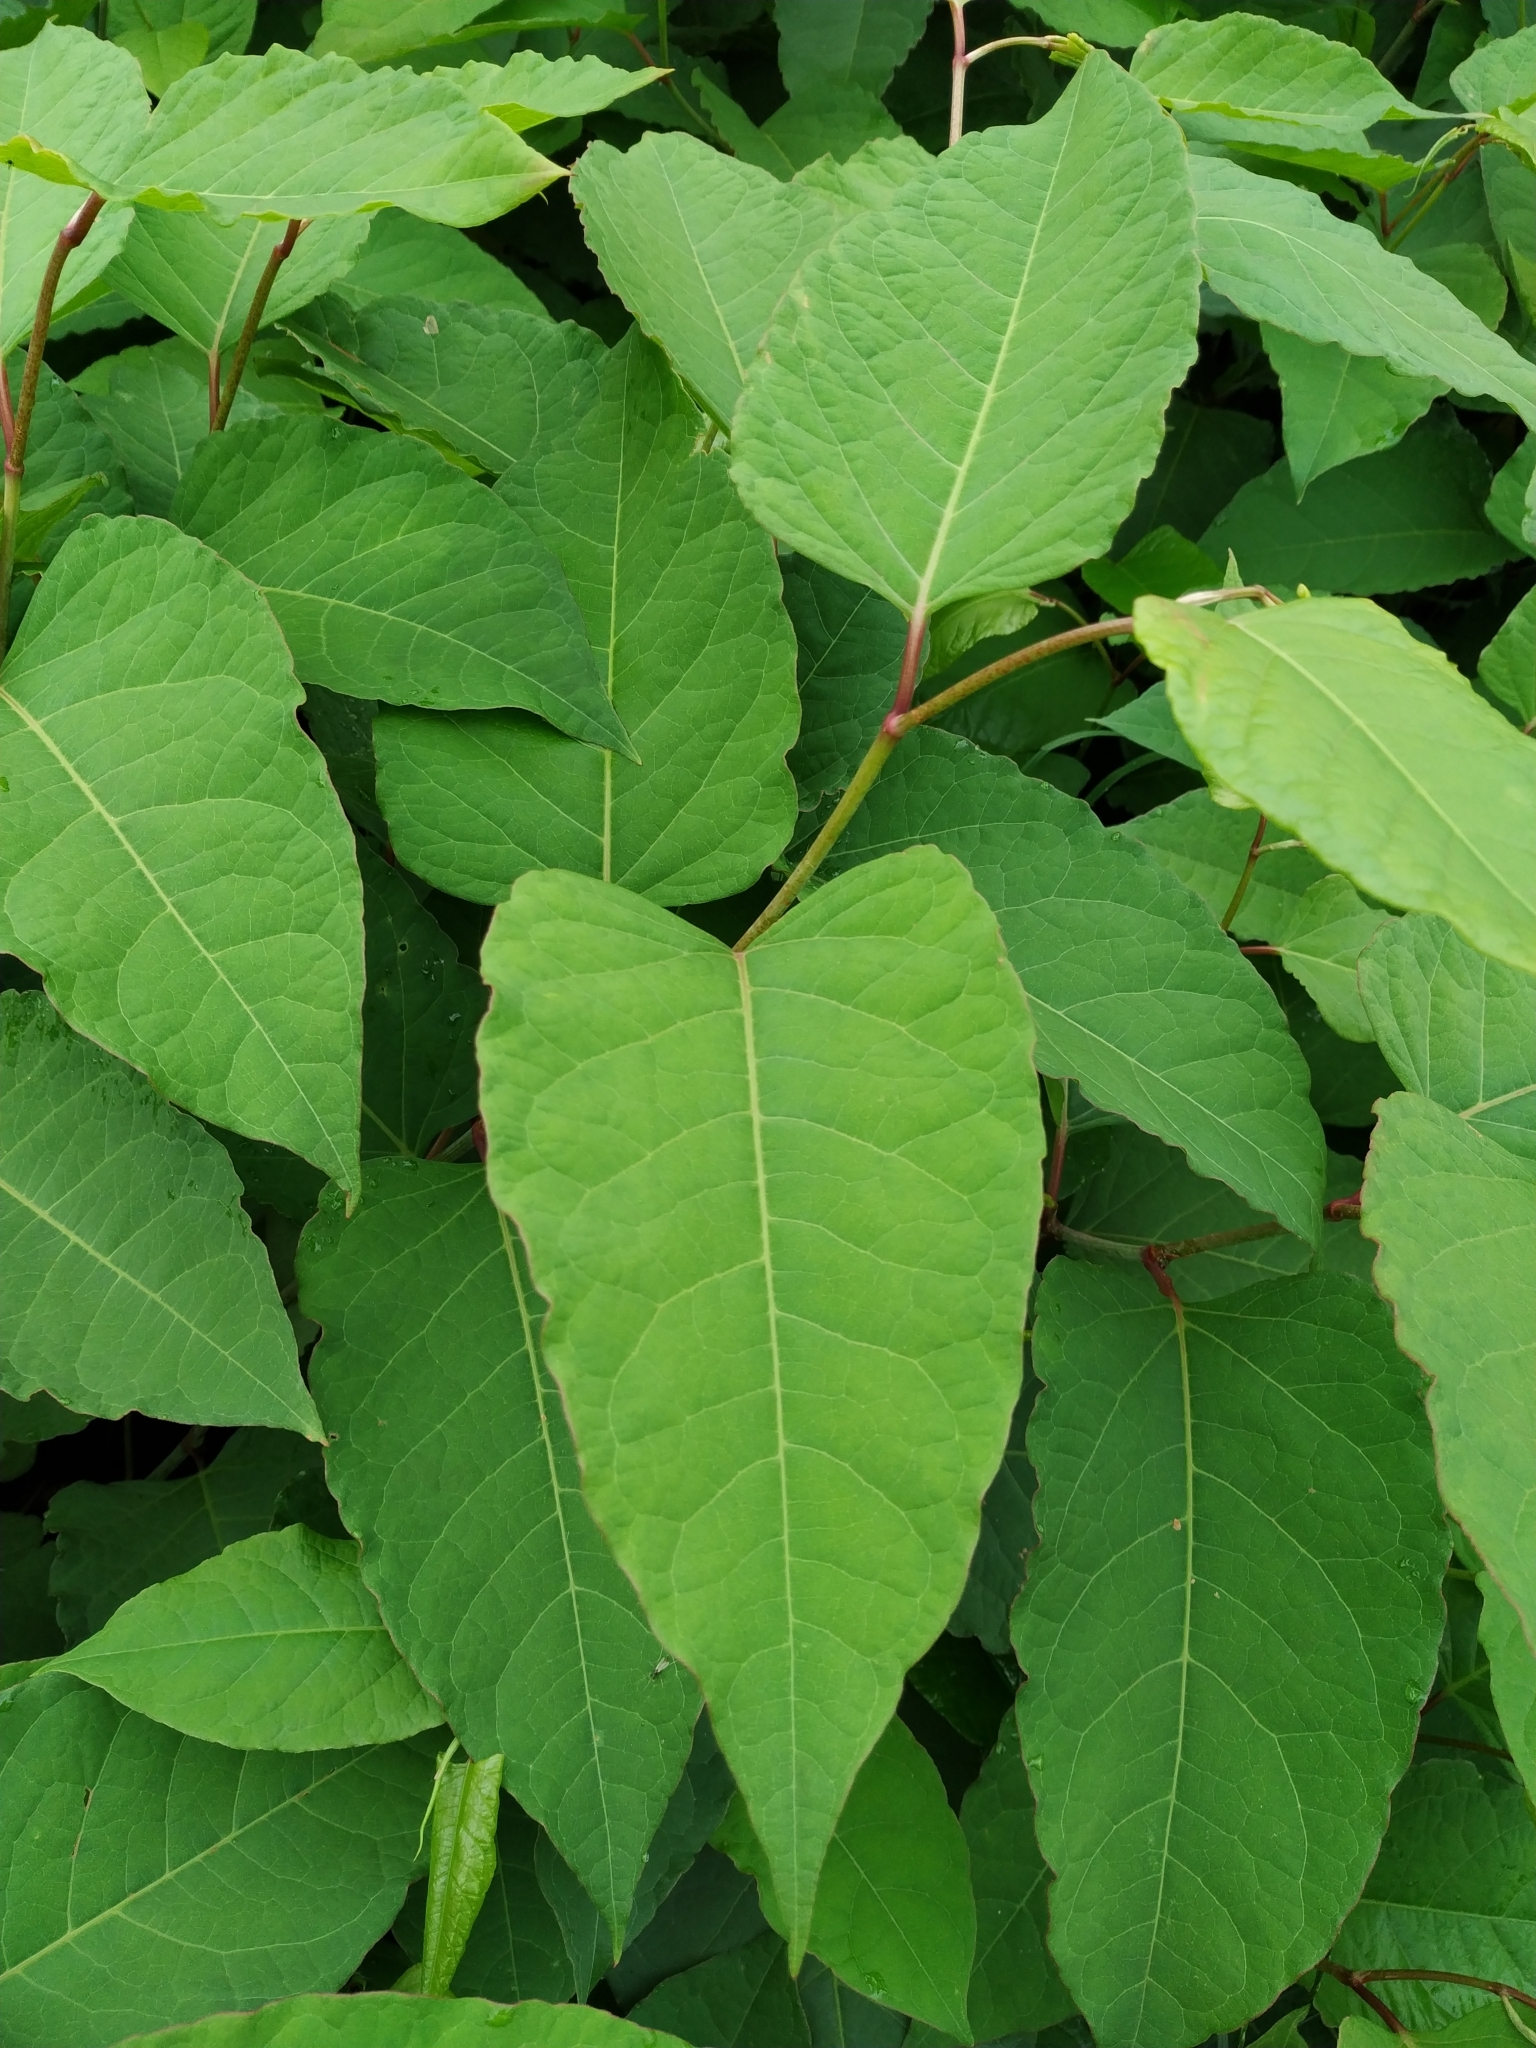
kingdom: Plantae
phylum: Tracheophyta
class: Magnoliopsida
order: Caryophyllales
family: Polygonaceae
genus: Reynoutria
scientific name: Reynoutria bohemica
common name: Bohemian knotweed
